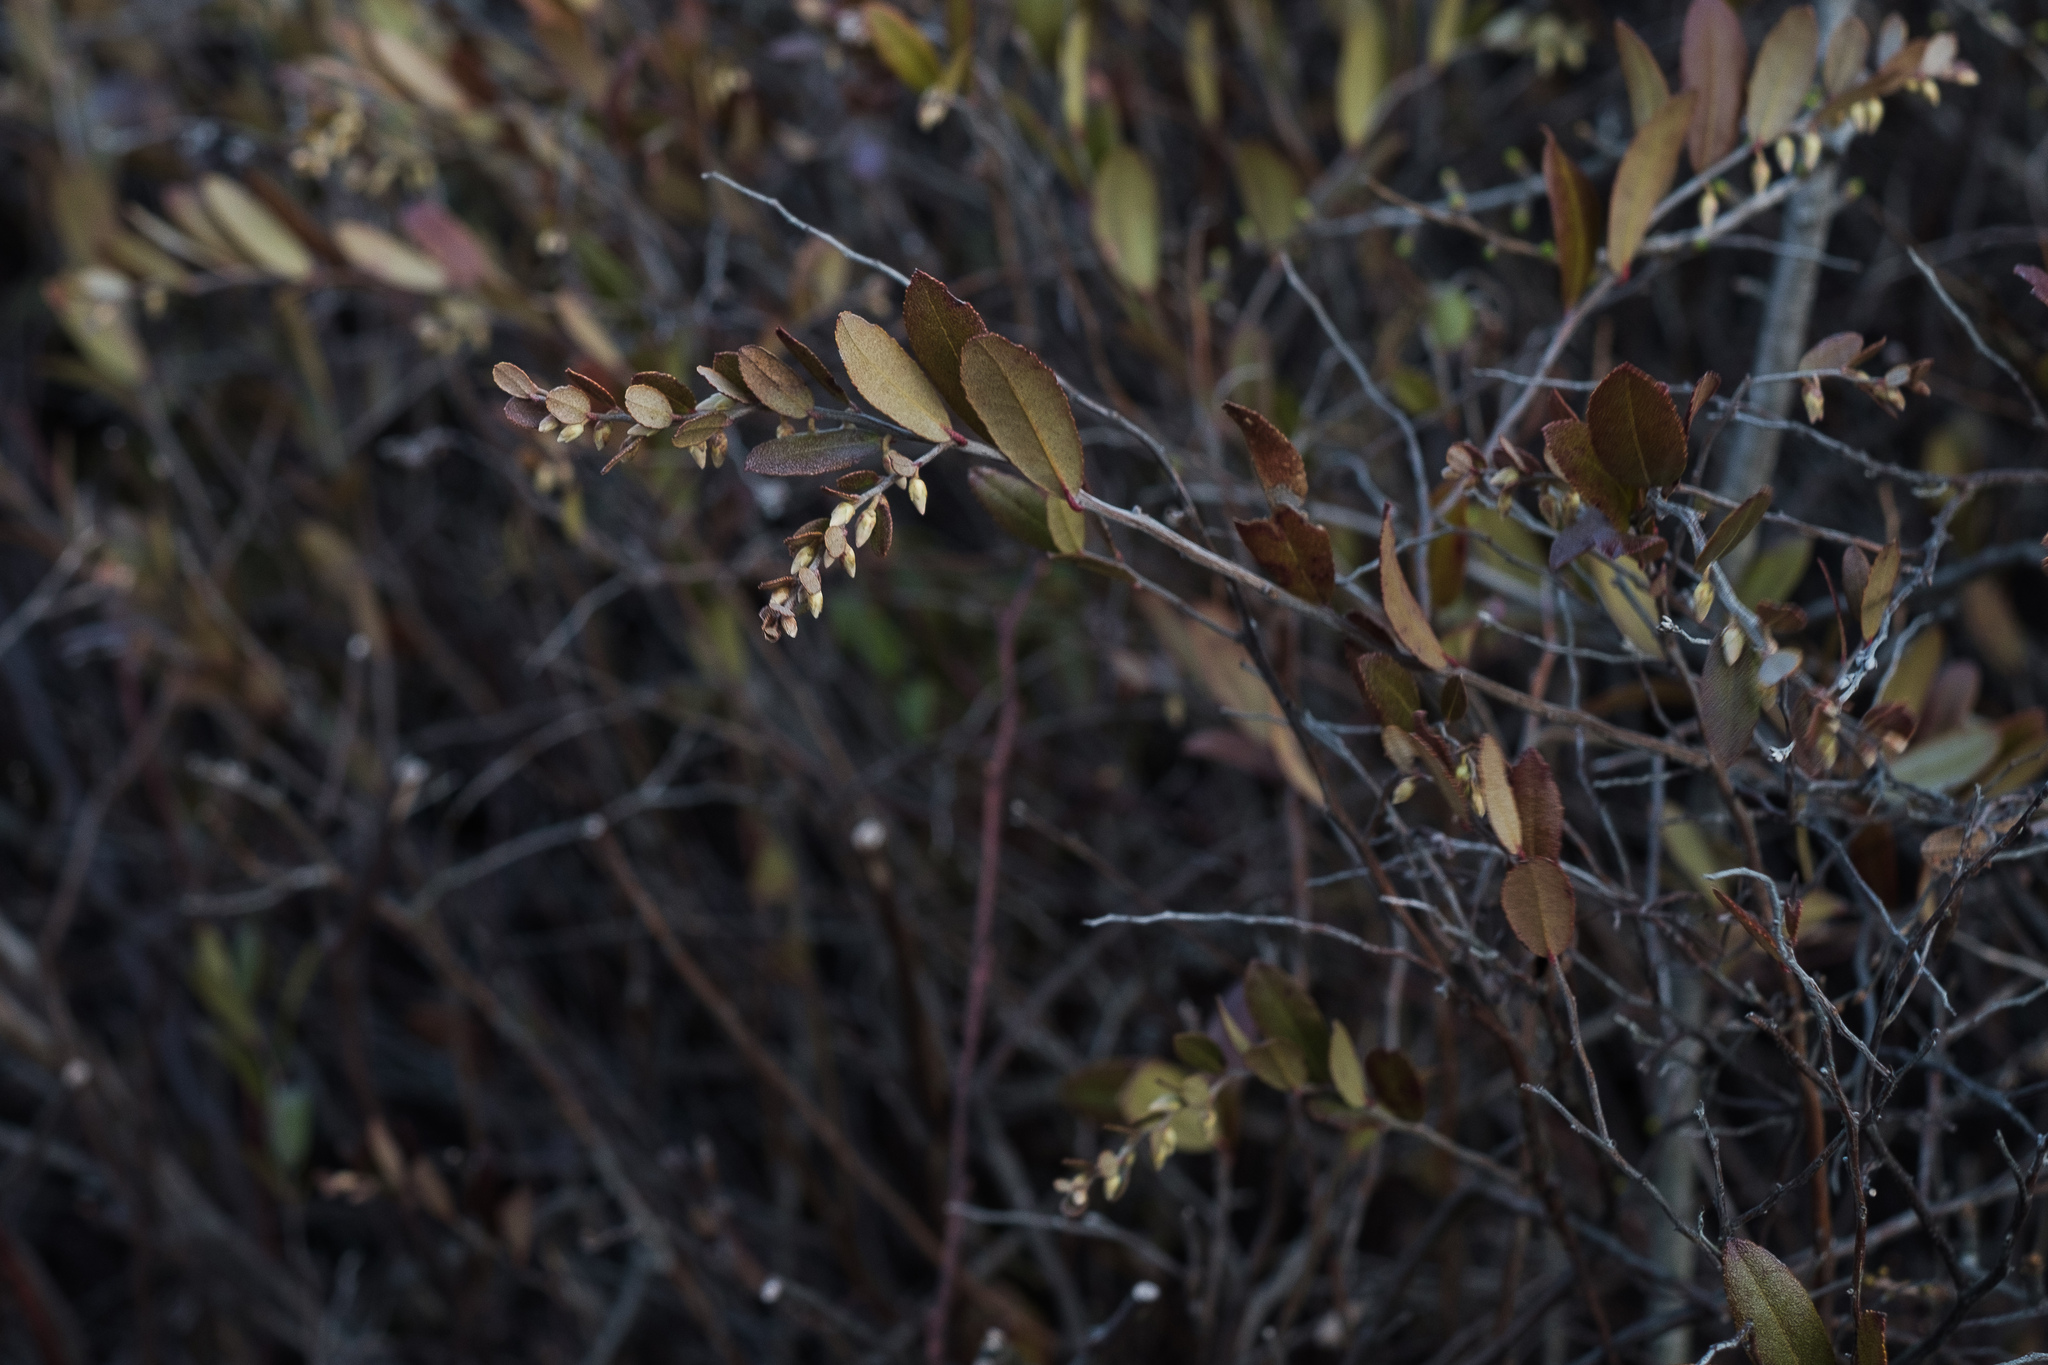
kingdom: Plantae
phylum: Tracheophyta
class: Magnoliopsida
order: Ericales
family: Ericaceae
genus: Chamaedaphne
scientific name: Chamaedaphne calyculata
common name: Leatherleaf
